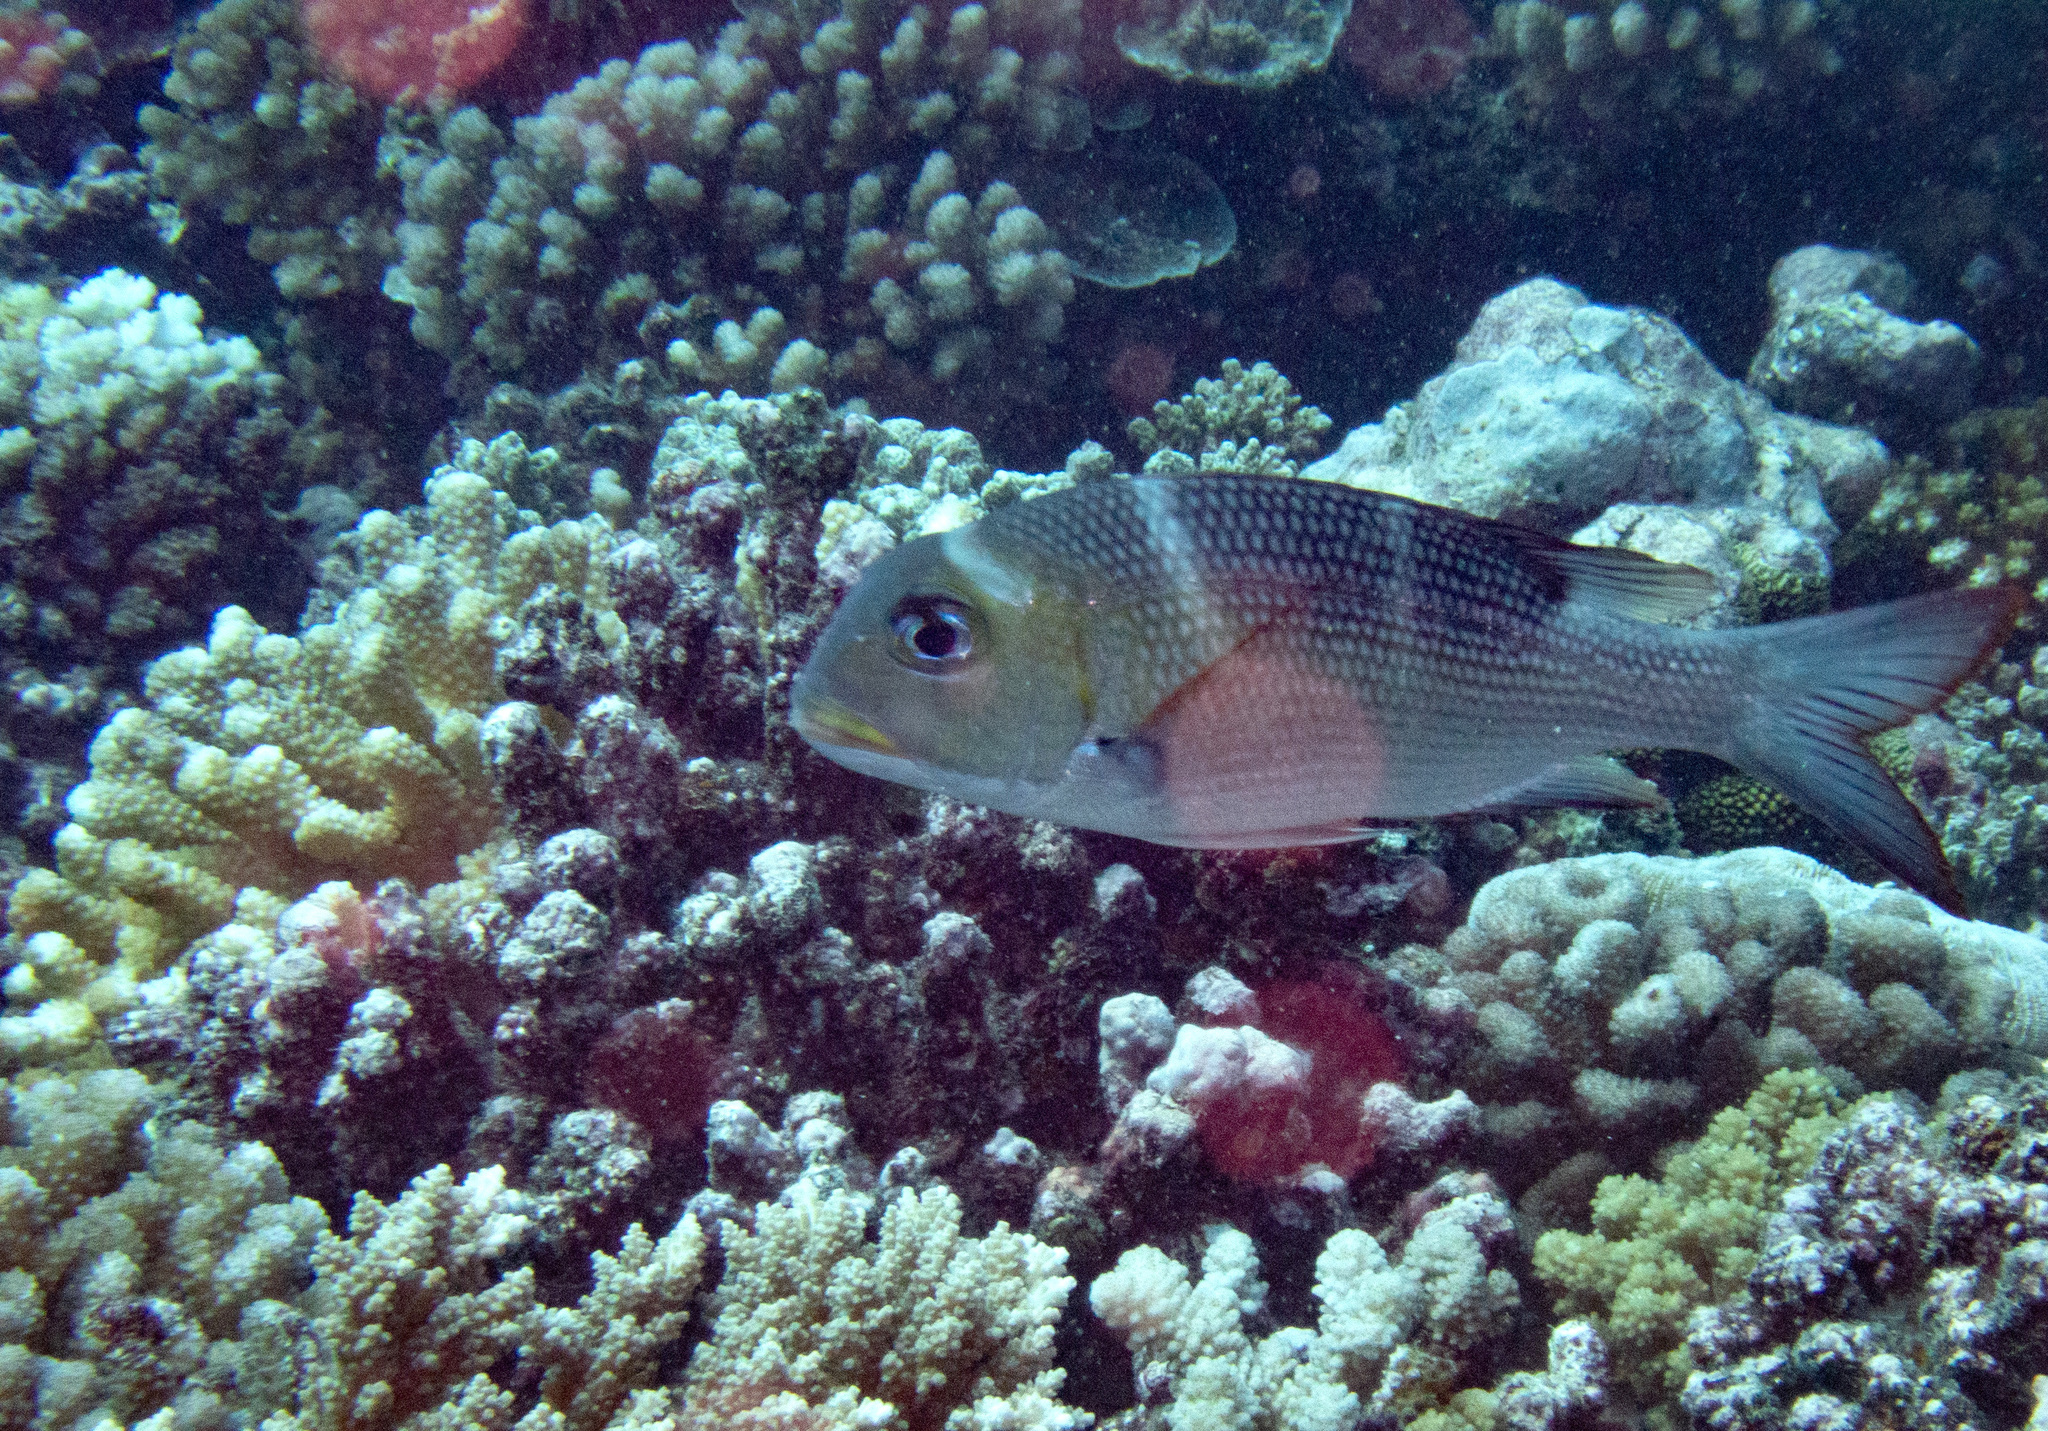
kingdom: Animalia
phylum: Chordata
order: Perciformes
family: Lethrinidae
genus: Monotaxis
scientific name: Monotaxis grandoculis
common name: Bigeye emperor
